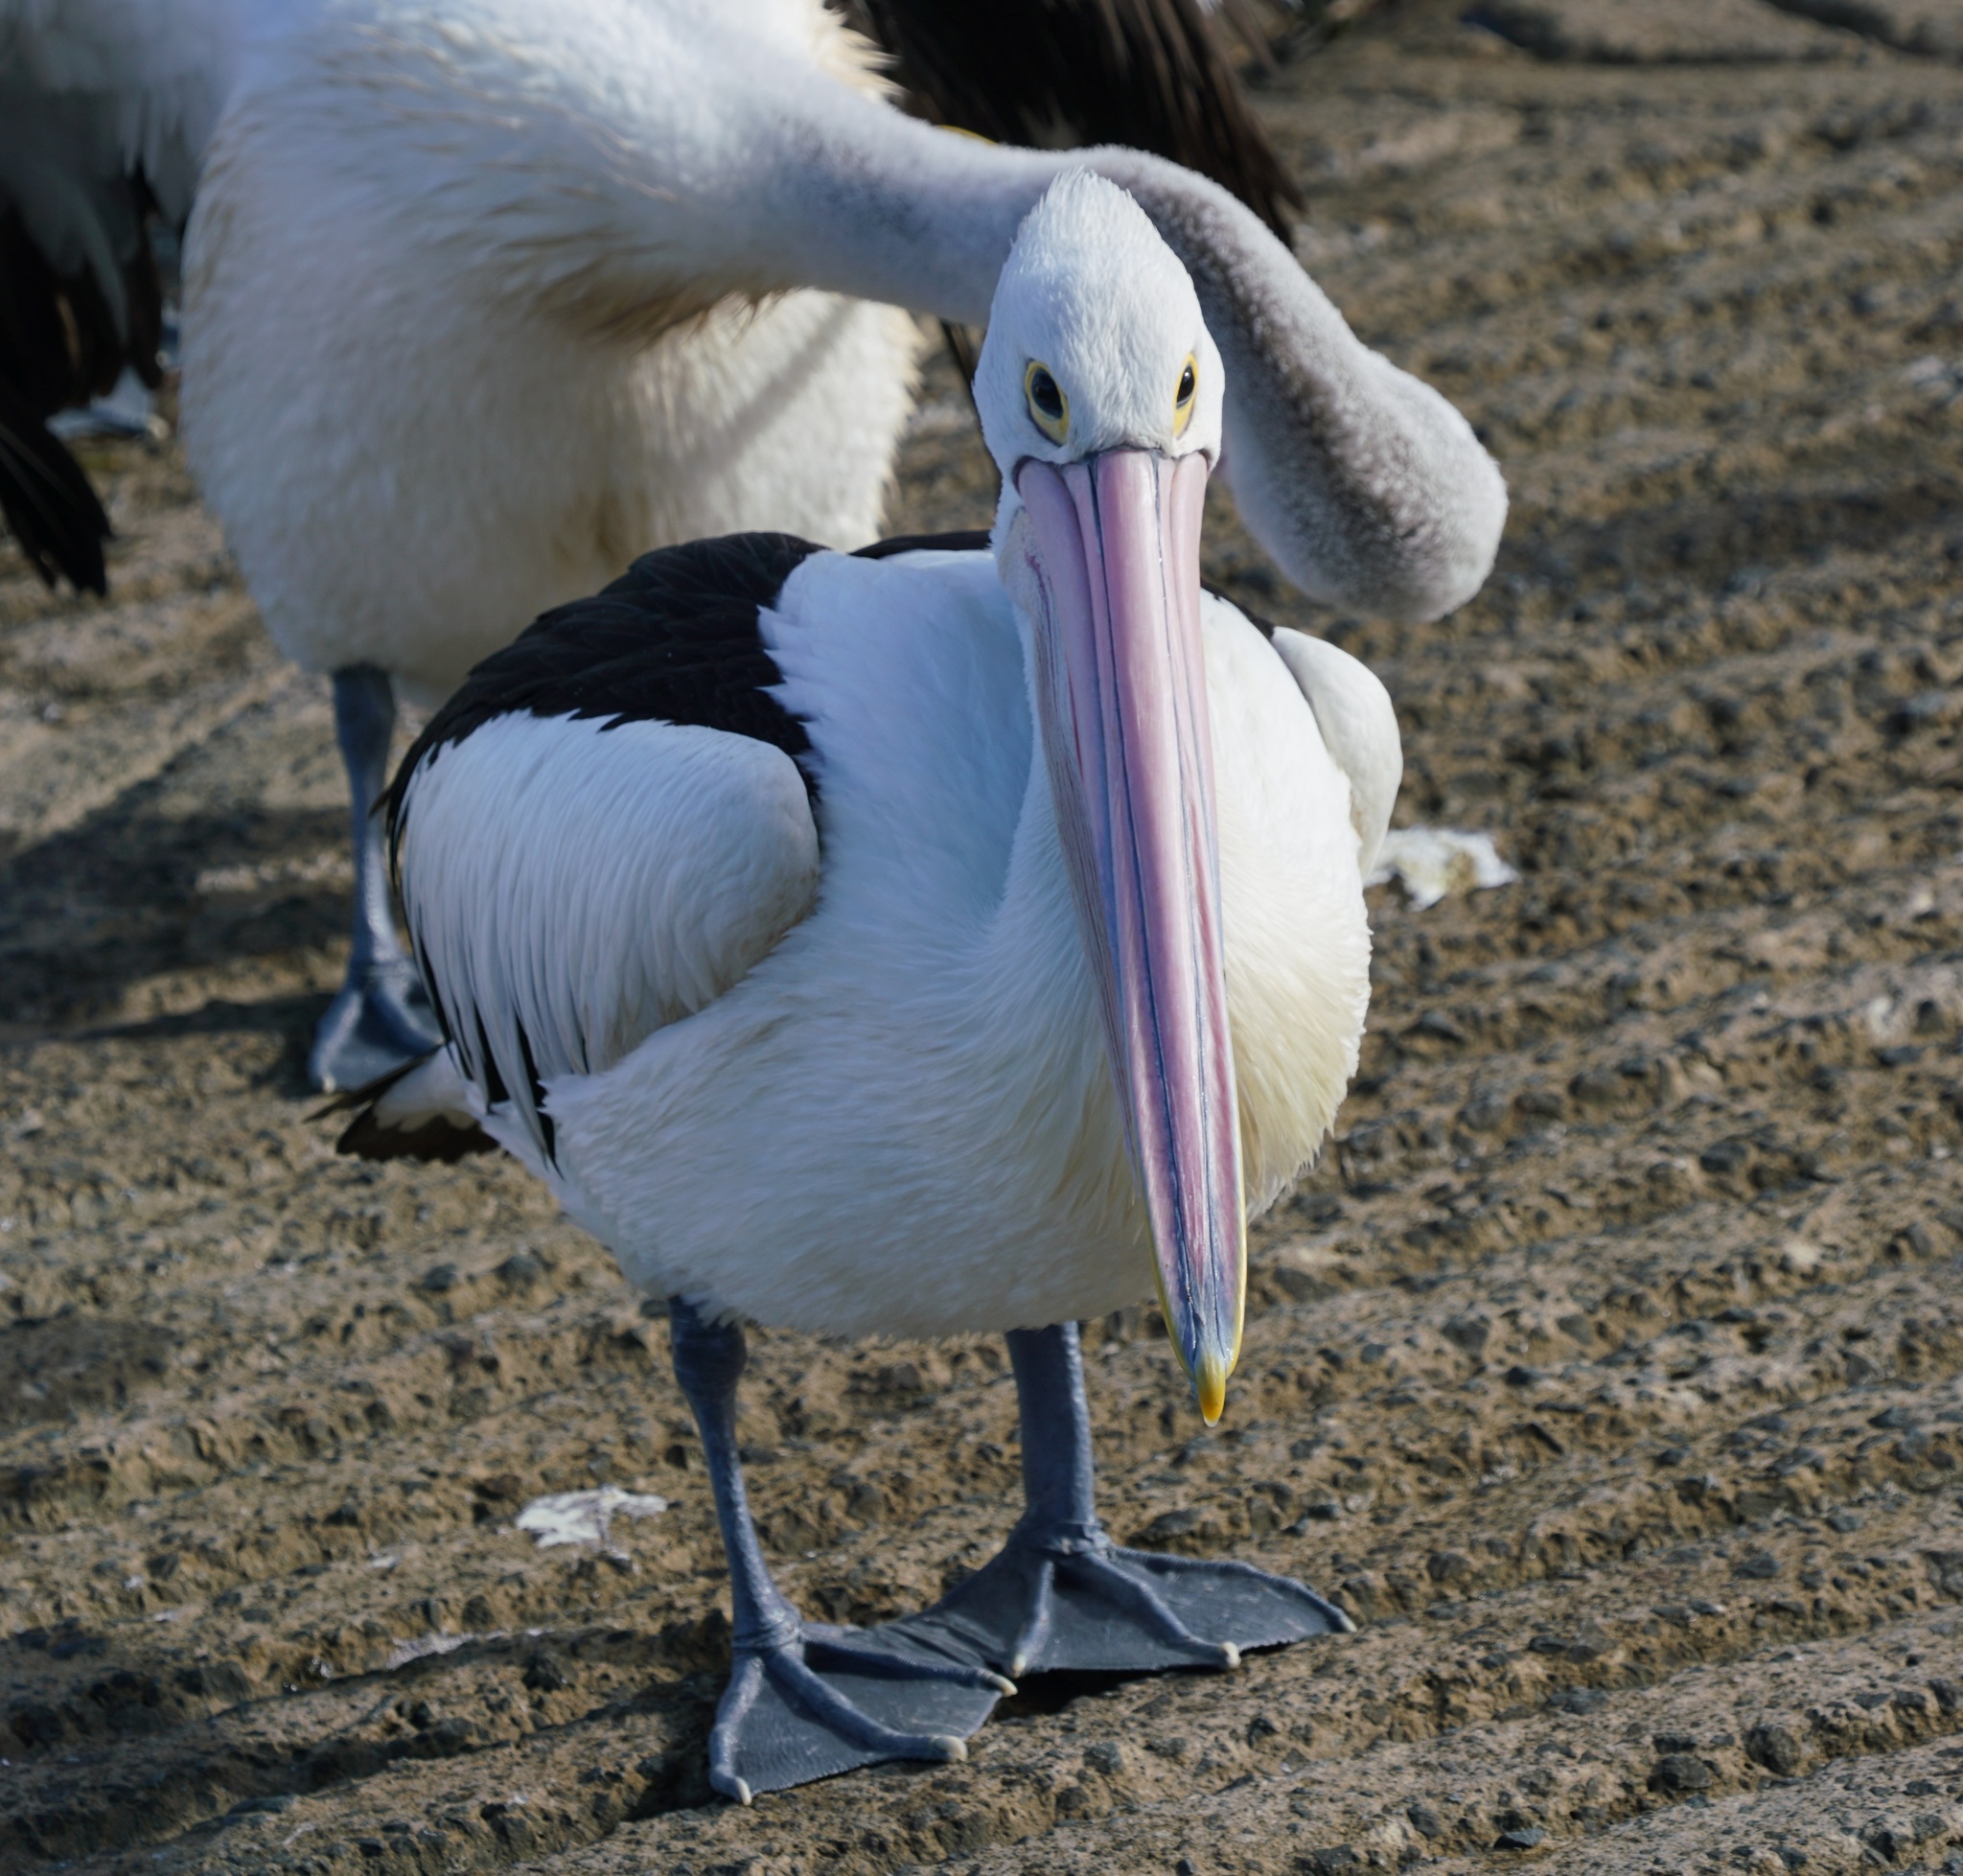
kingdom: Animalia
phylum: Chordata
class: Aves
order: Pelecaniformes
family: Pelecanidae
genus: Pelecanus
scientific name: Pelecanus conspicillatus
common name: Australian pelican
